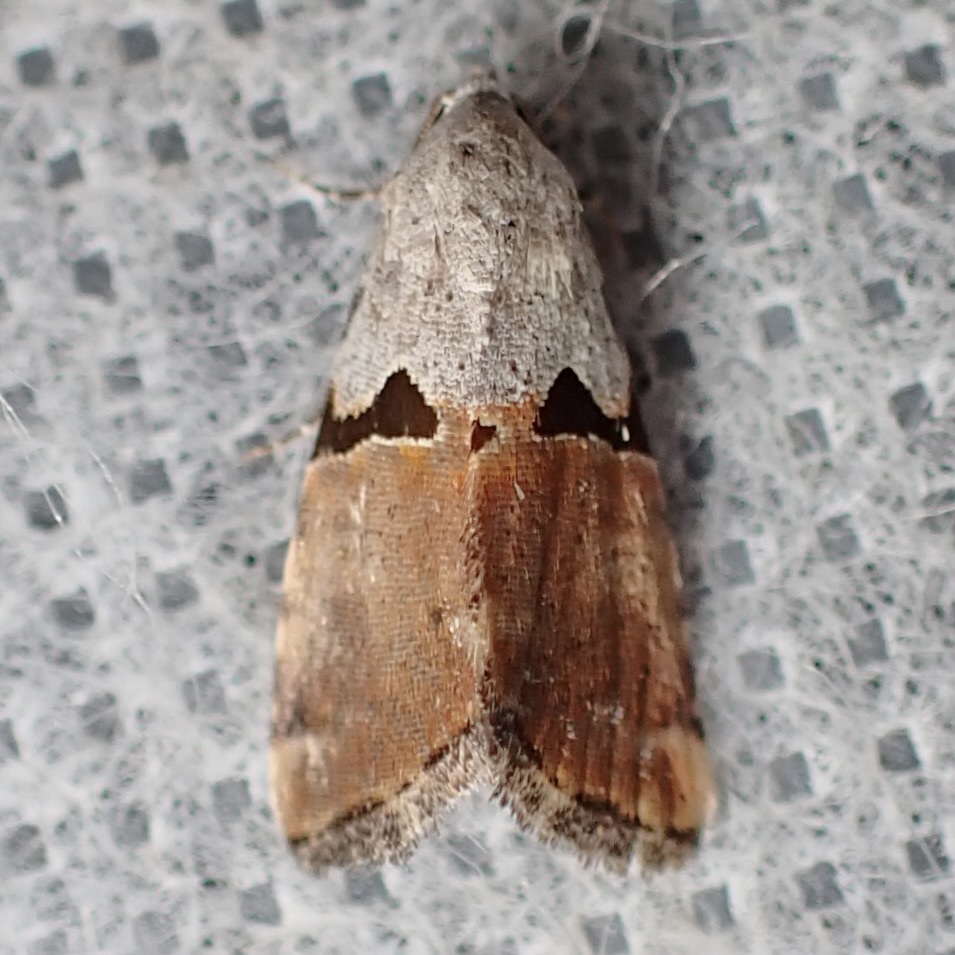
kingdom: Animalia
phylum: Arthropoda
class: Insecta
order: Lepidoptera
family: Noctuidae
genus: Cobubatha
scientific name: Cobubatha orthozona
